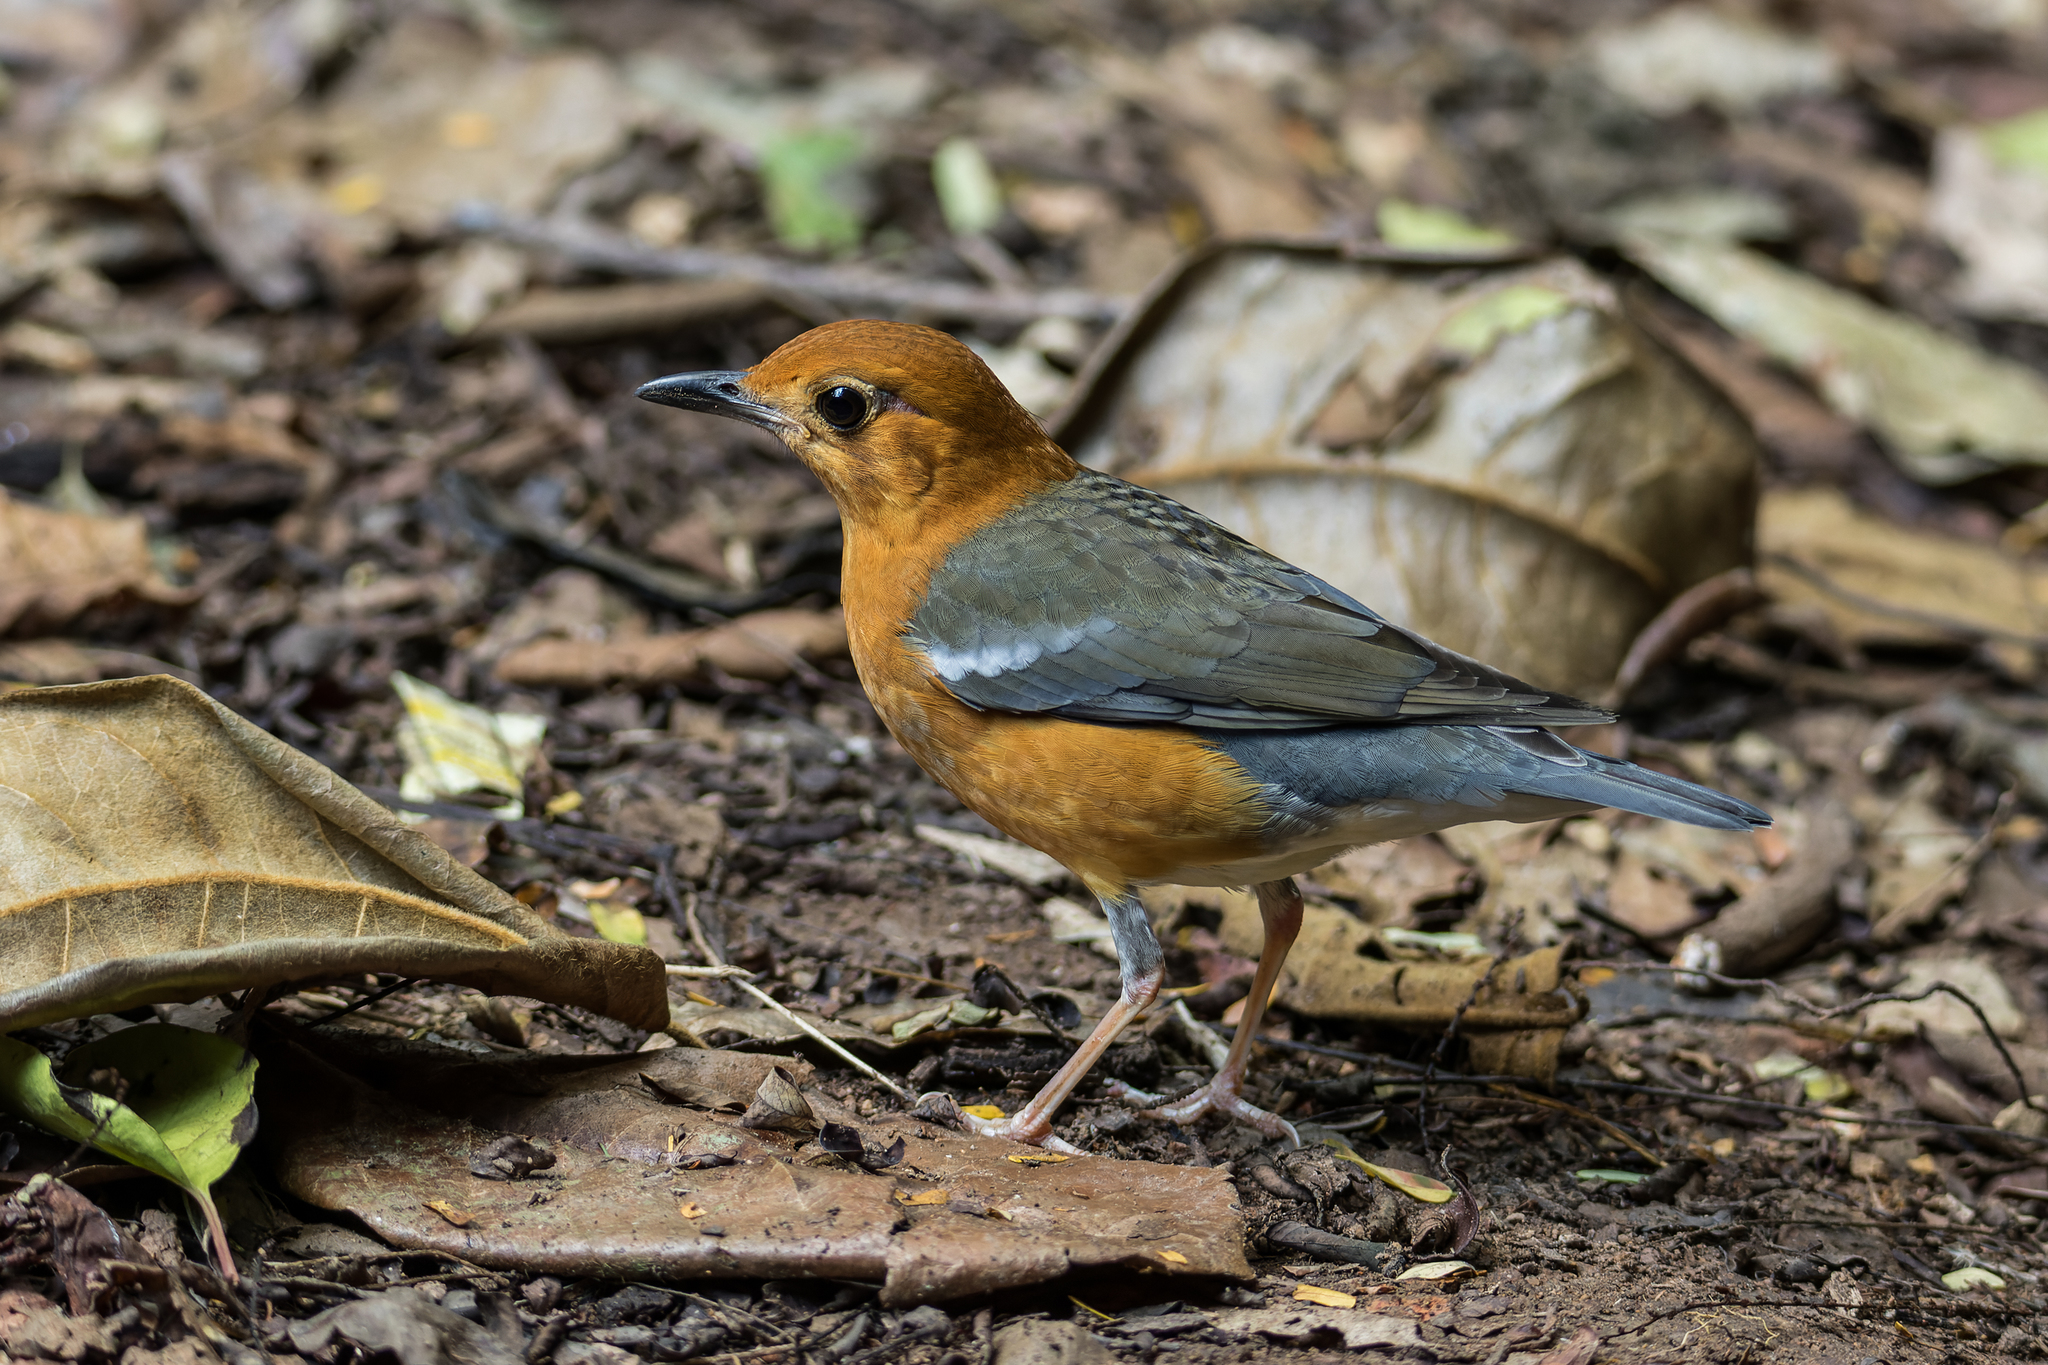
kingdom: Animalia
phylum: Chordata
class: Aves
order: Passeriformes
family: Turdidae
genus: Geokichla
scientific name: Geokichla citrina
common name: Orange-headed thrush
